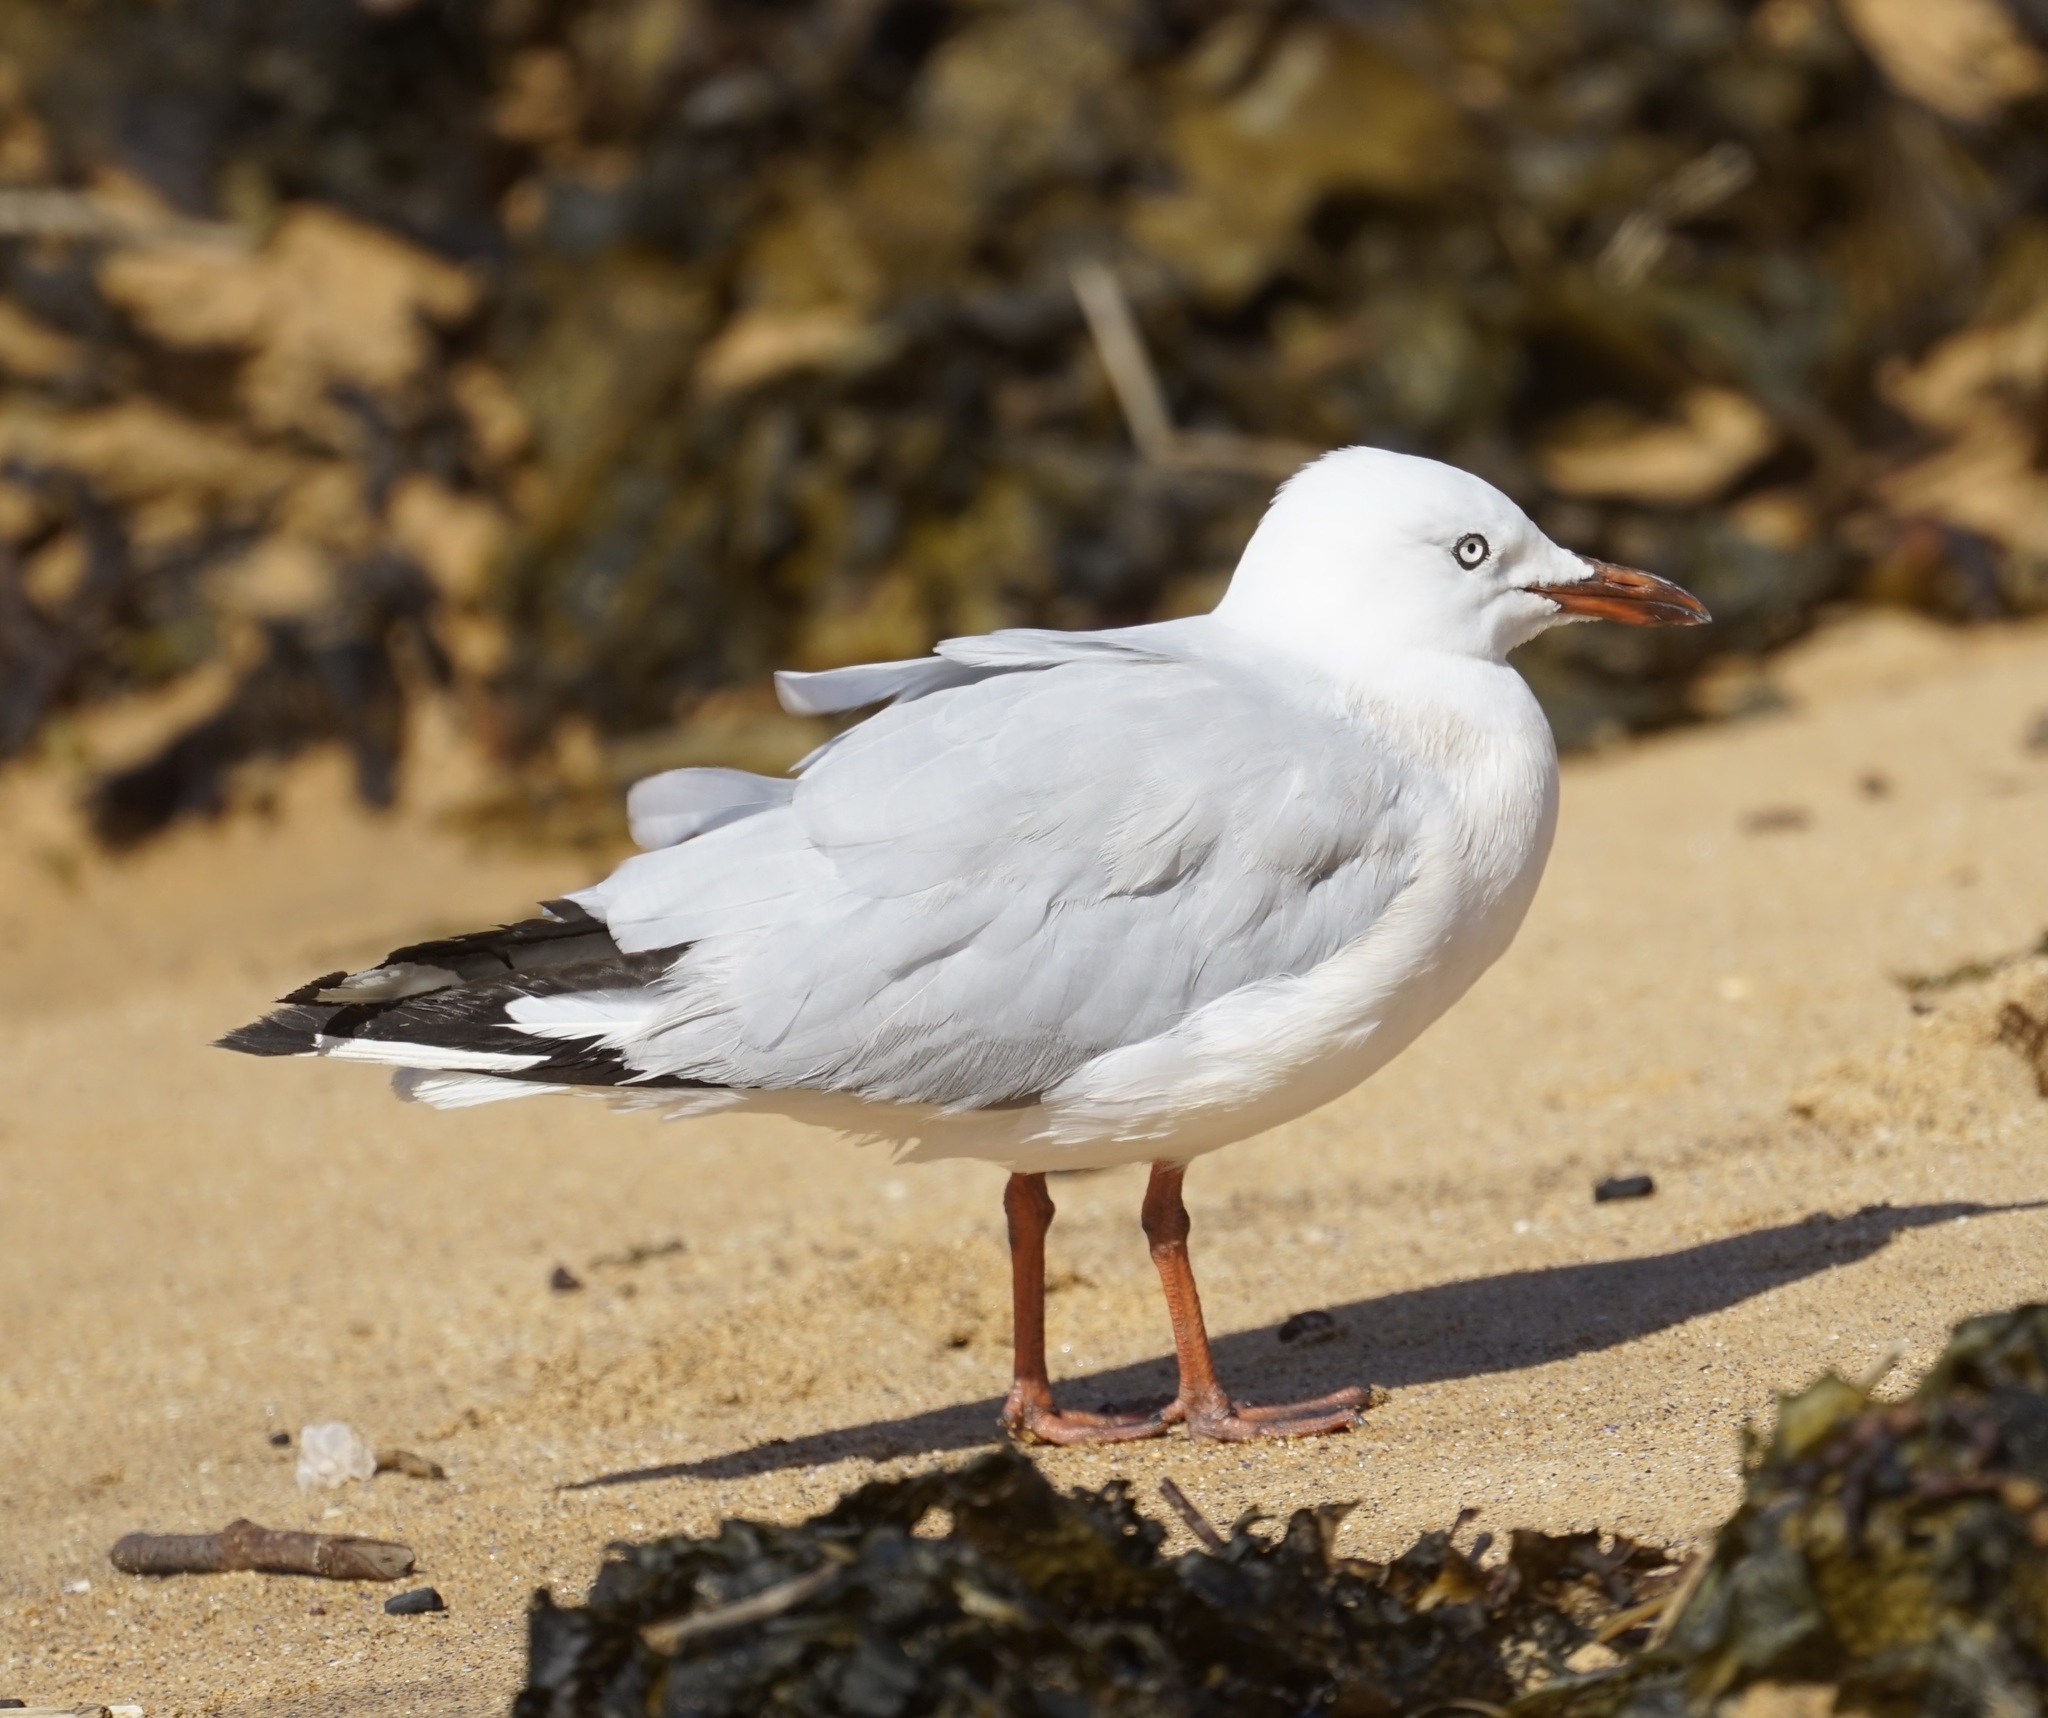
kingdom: Animalia
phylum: Chordata
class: Aves
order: Charadriiformes
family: Laridae
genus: Chroicocephalus
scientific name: Chroicocephalus novaehollandiae
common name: Silver gull
